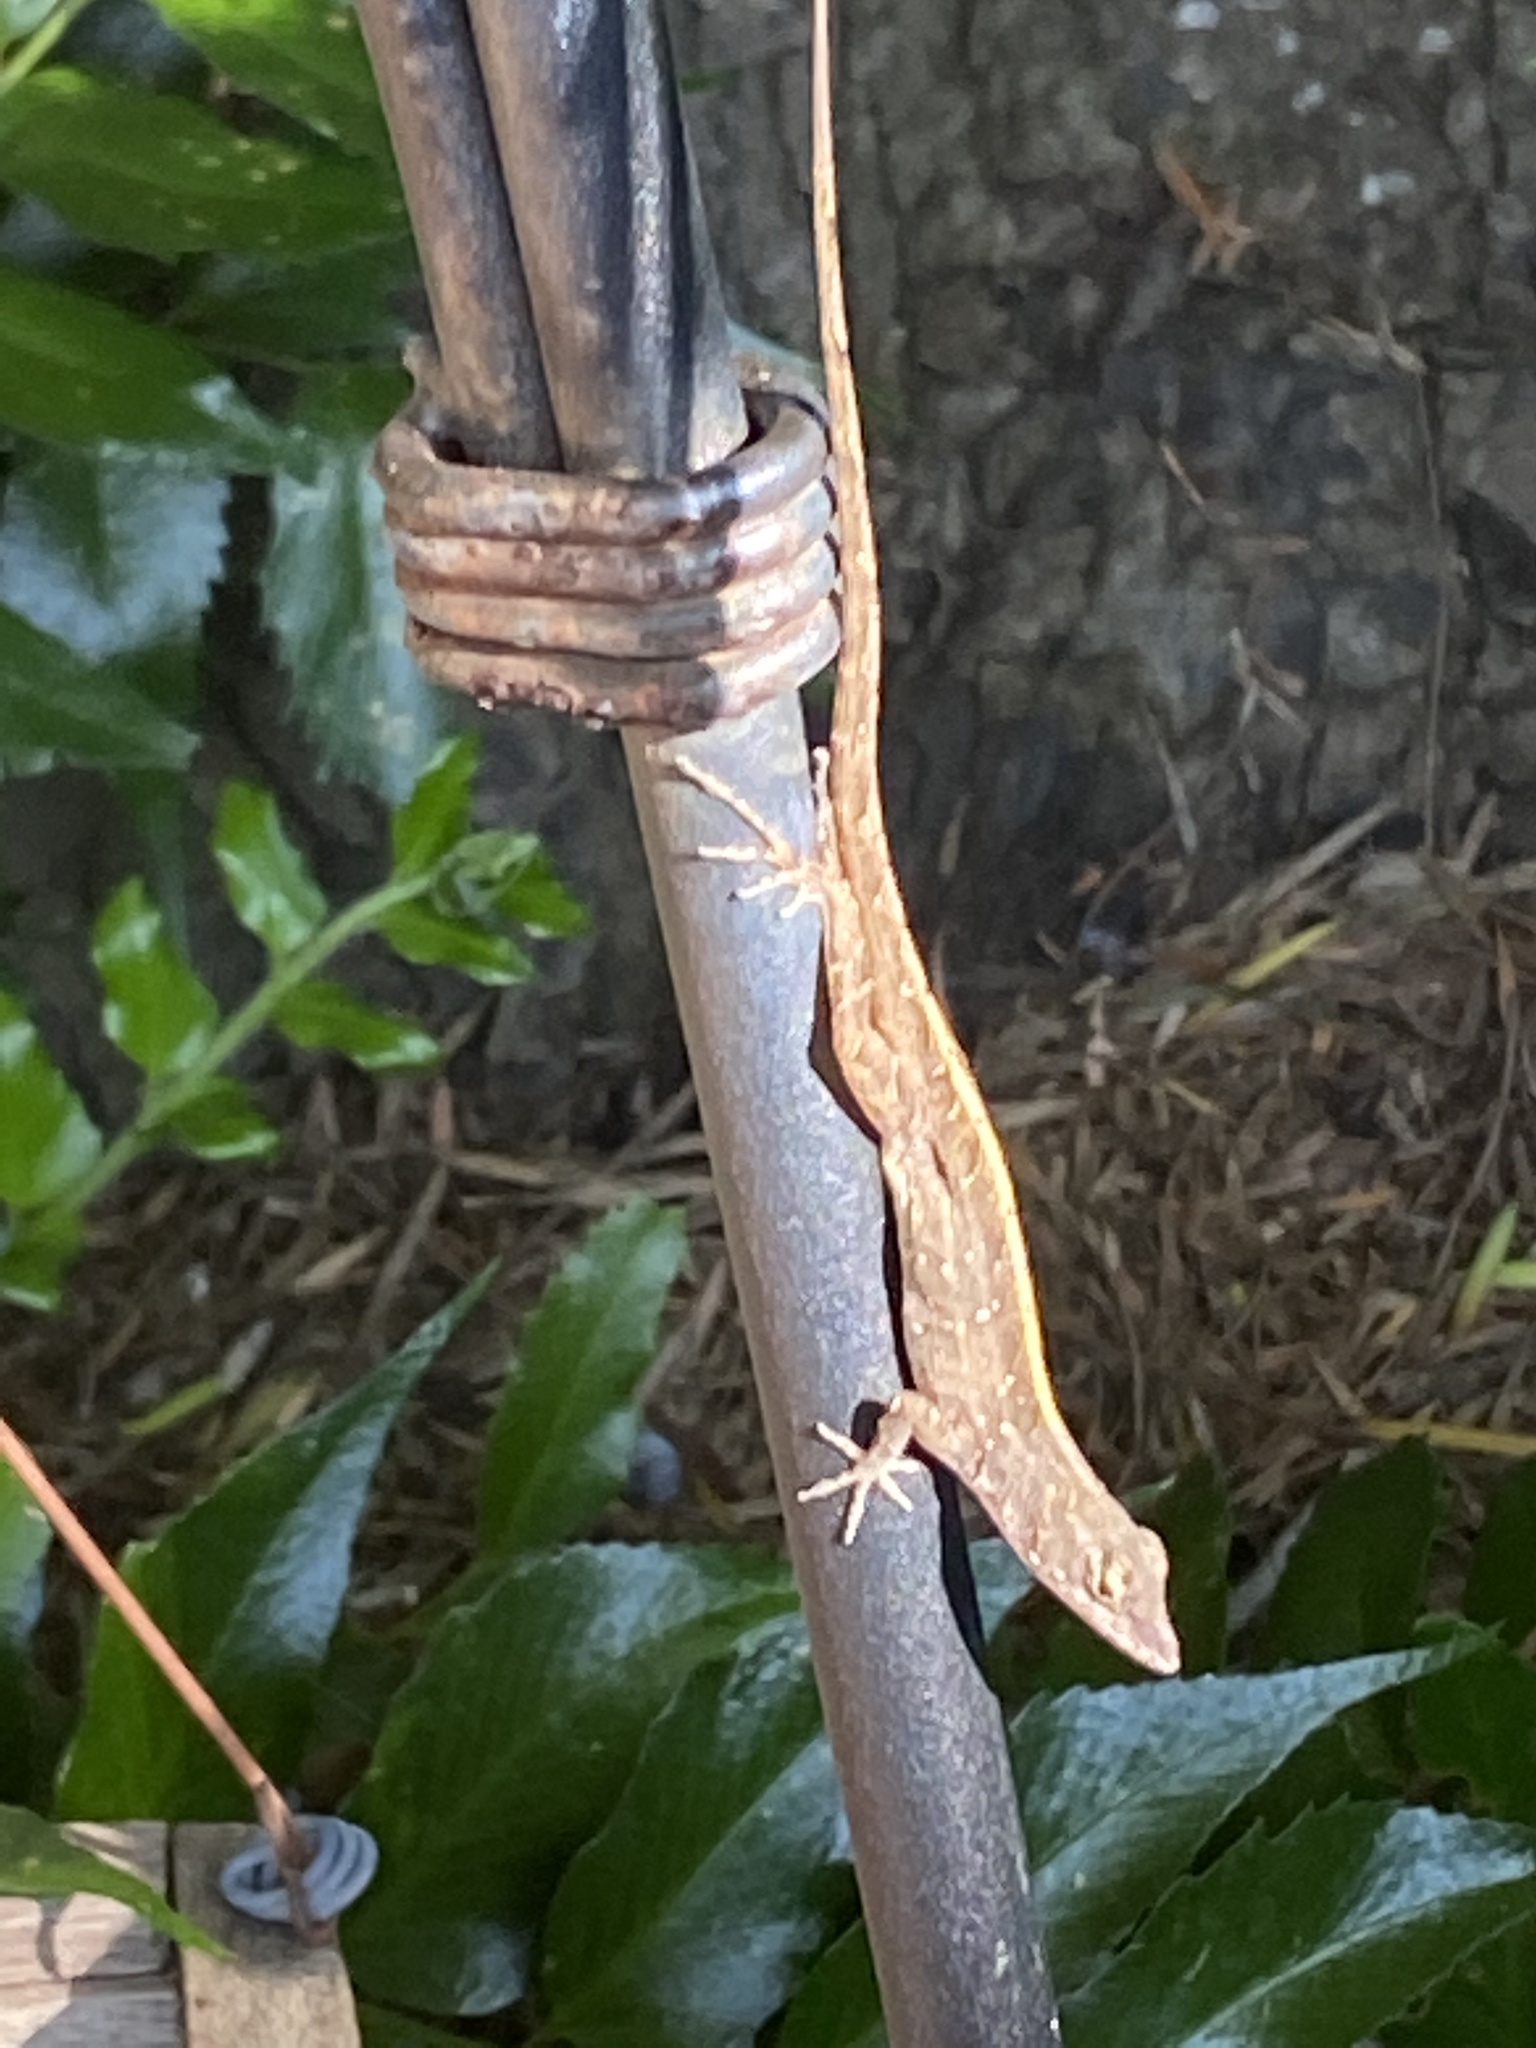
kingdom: Animalia
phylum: Chordata
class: Squamata
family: Dactyloidae
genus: Anolis
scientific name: Anolis sagrei
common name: Brown anole
